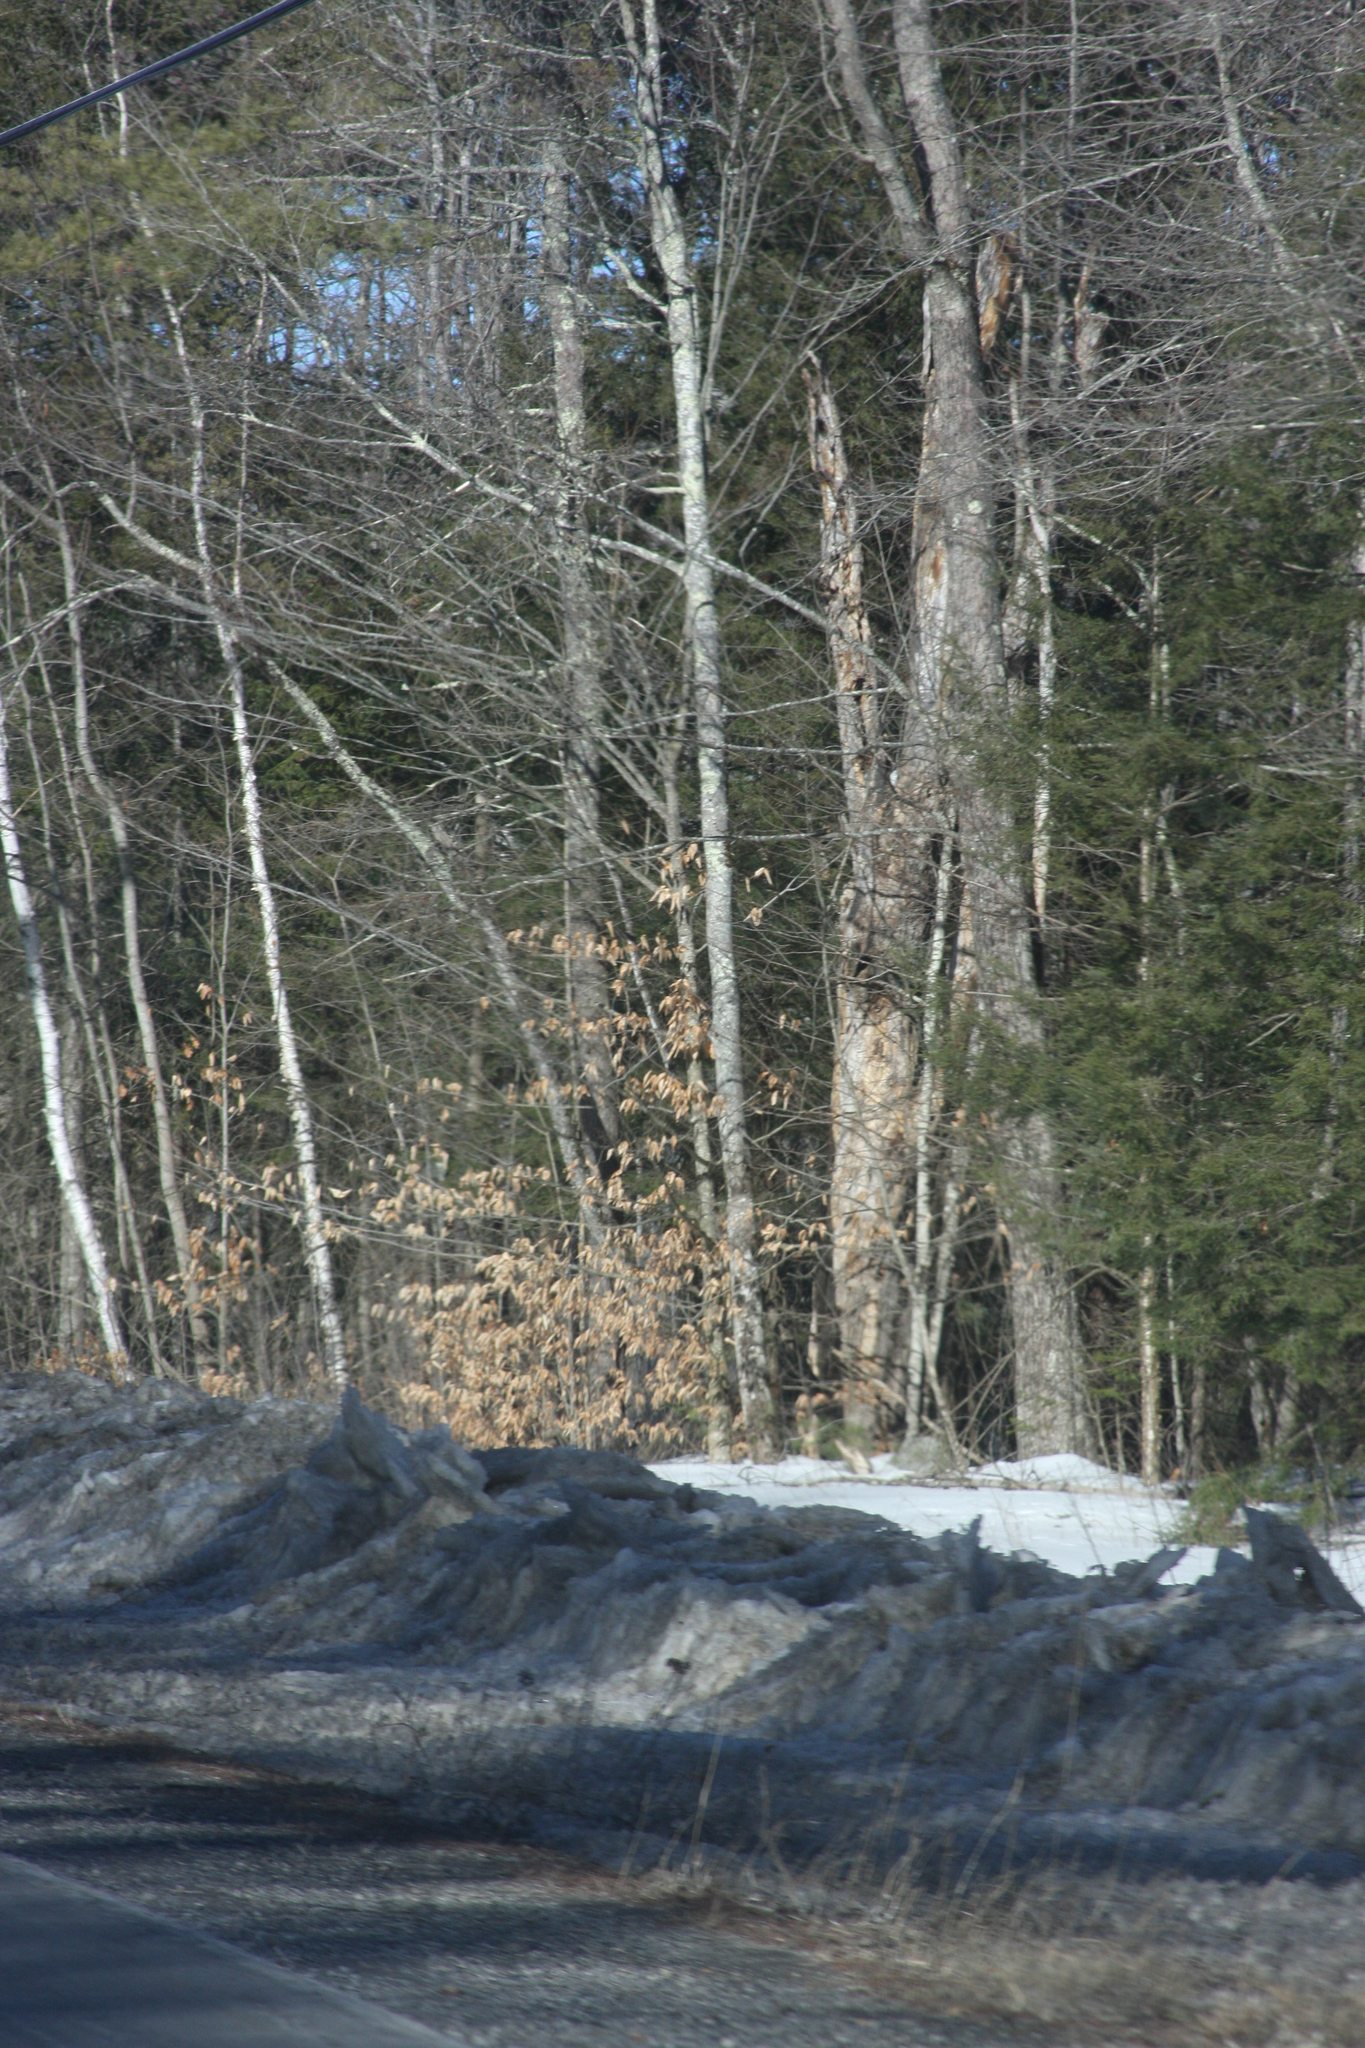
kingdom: Plantae
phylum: Tracheophyta
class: Magnoliopsida
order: Fagales
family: Fagaceae
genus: Fagus
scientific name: Fagus grandifolia
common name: American beech
